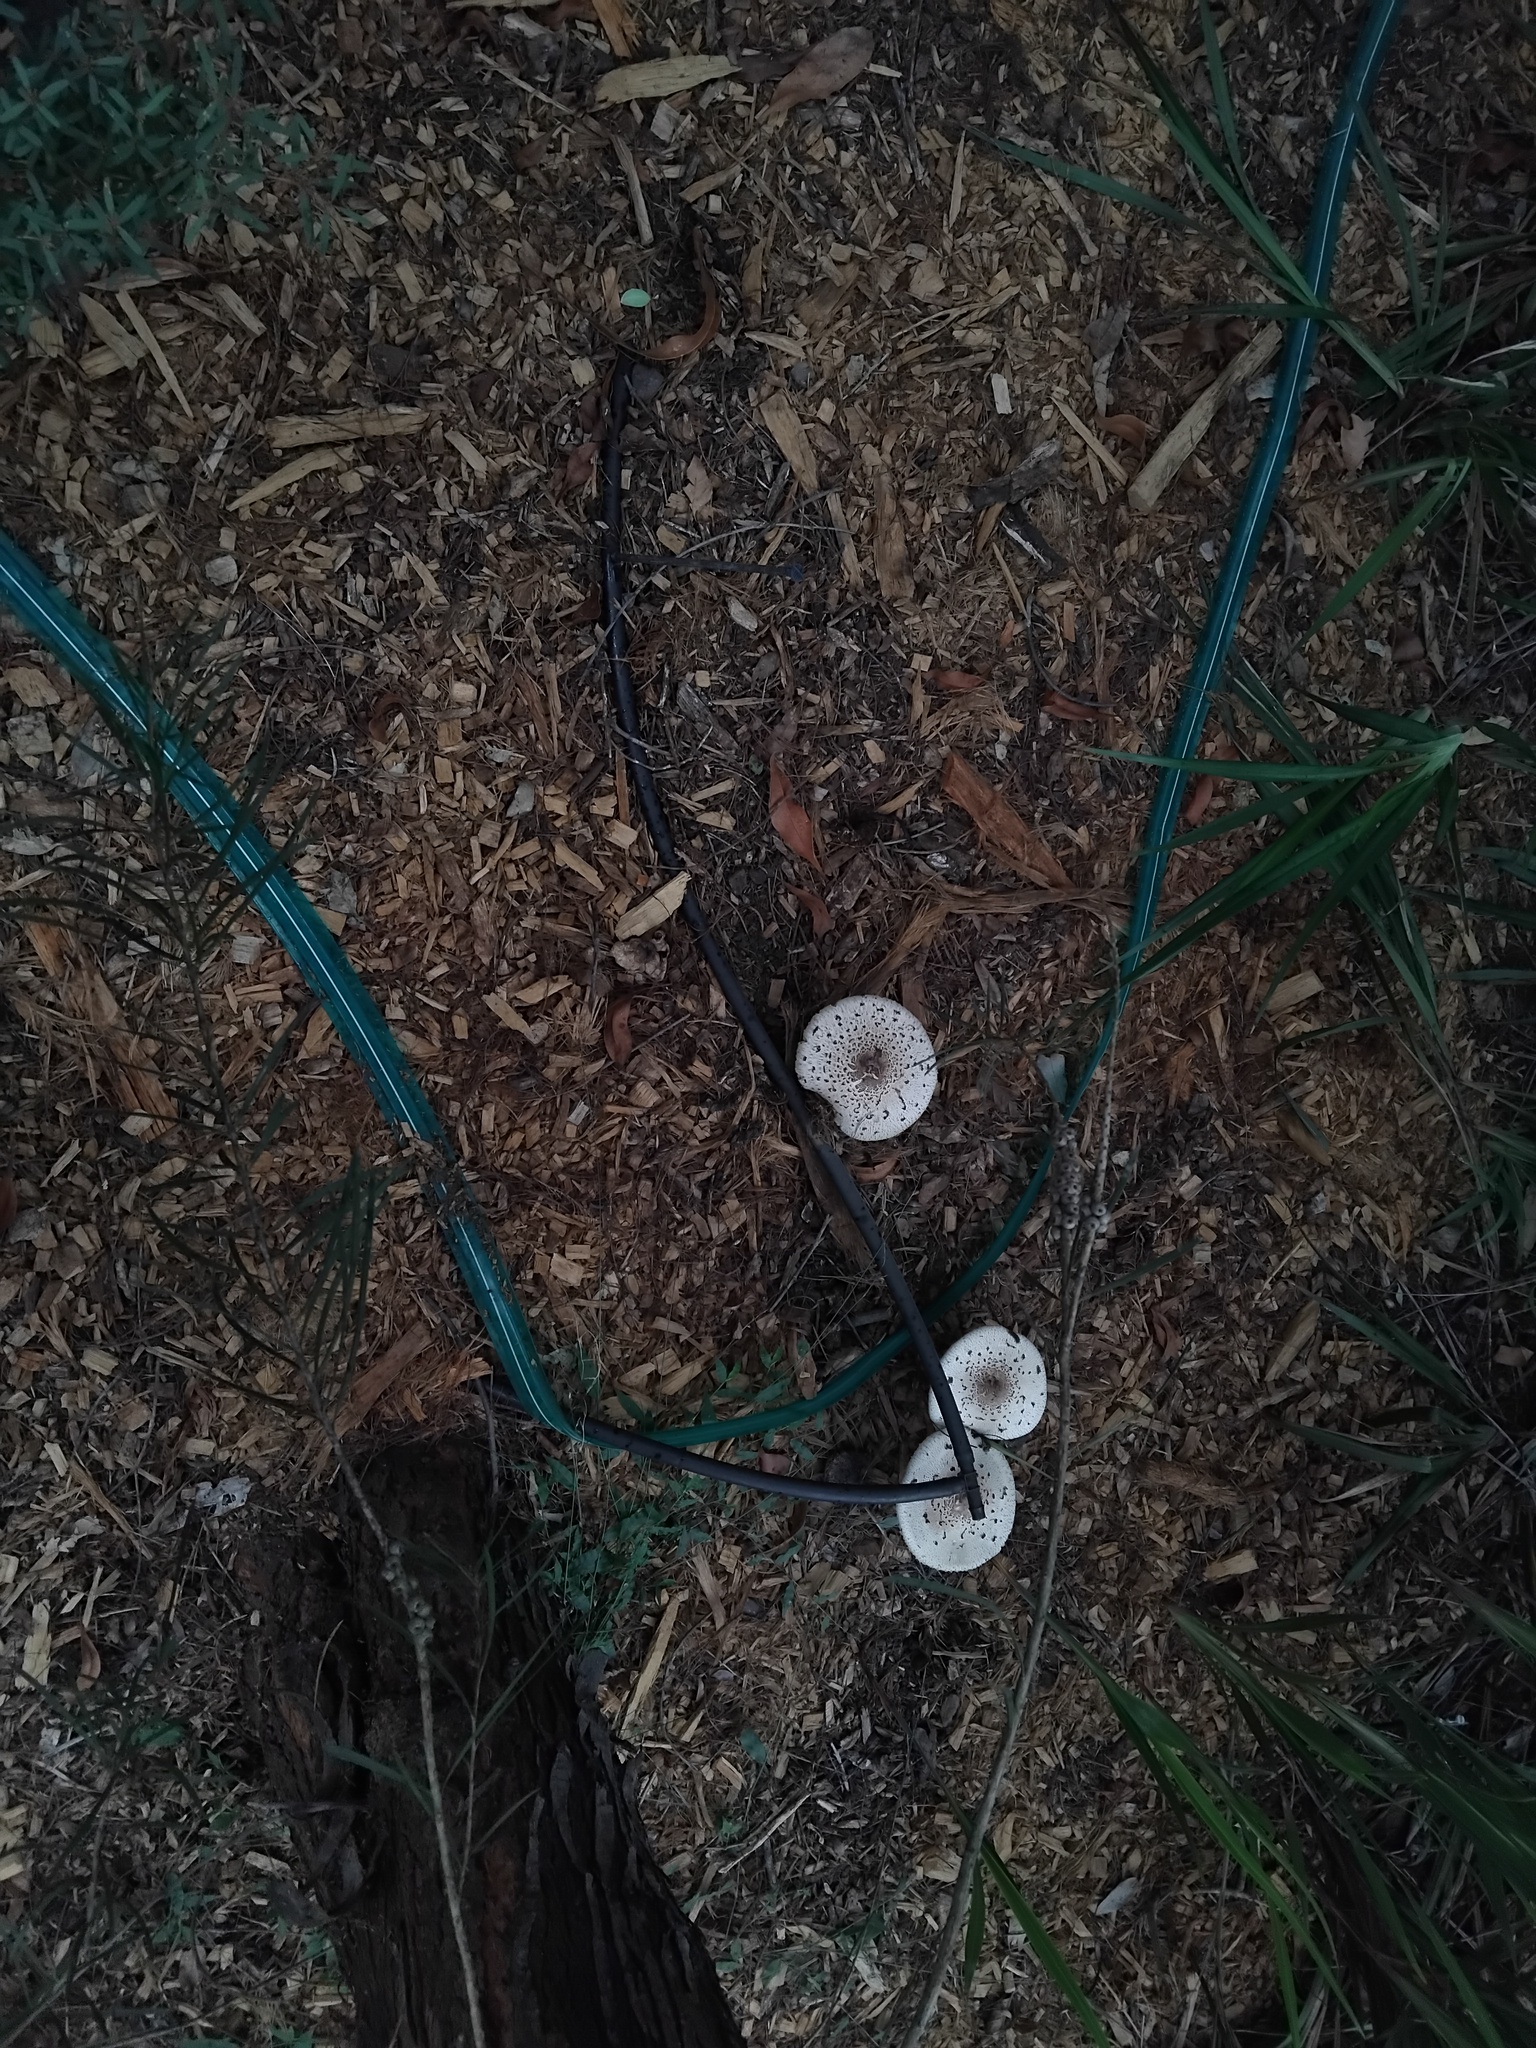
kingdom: Fungi
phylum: Basidiomycota
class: Agaricomycetes
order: Agaricales
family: Agaricaceae
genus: Chlorophyllum
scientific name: Chlorophyllum molybdites
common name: False parasol
